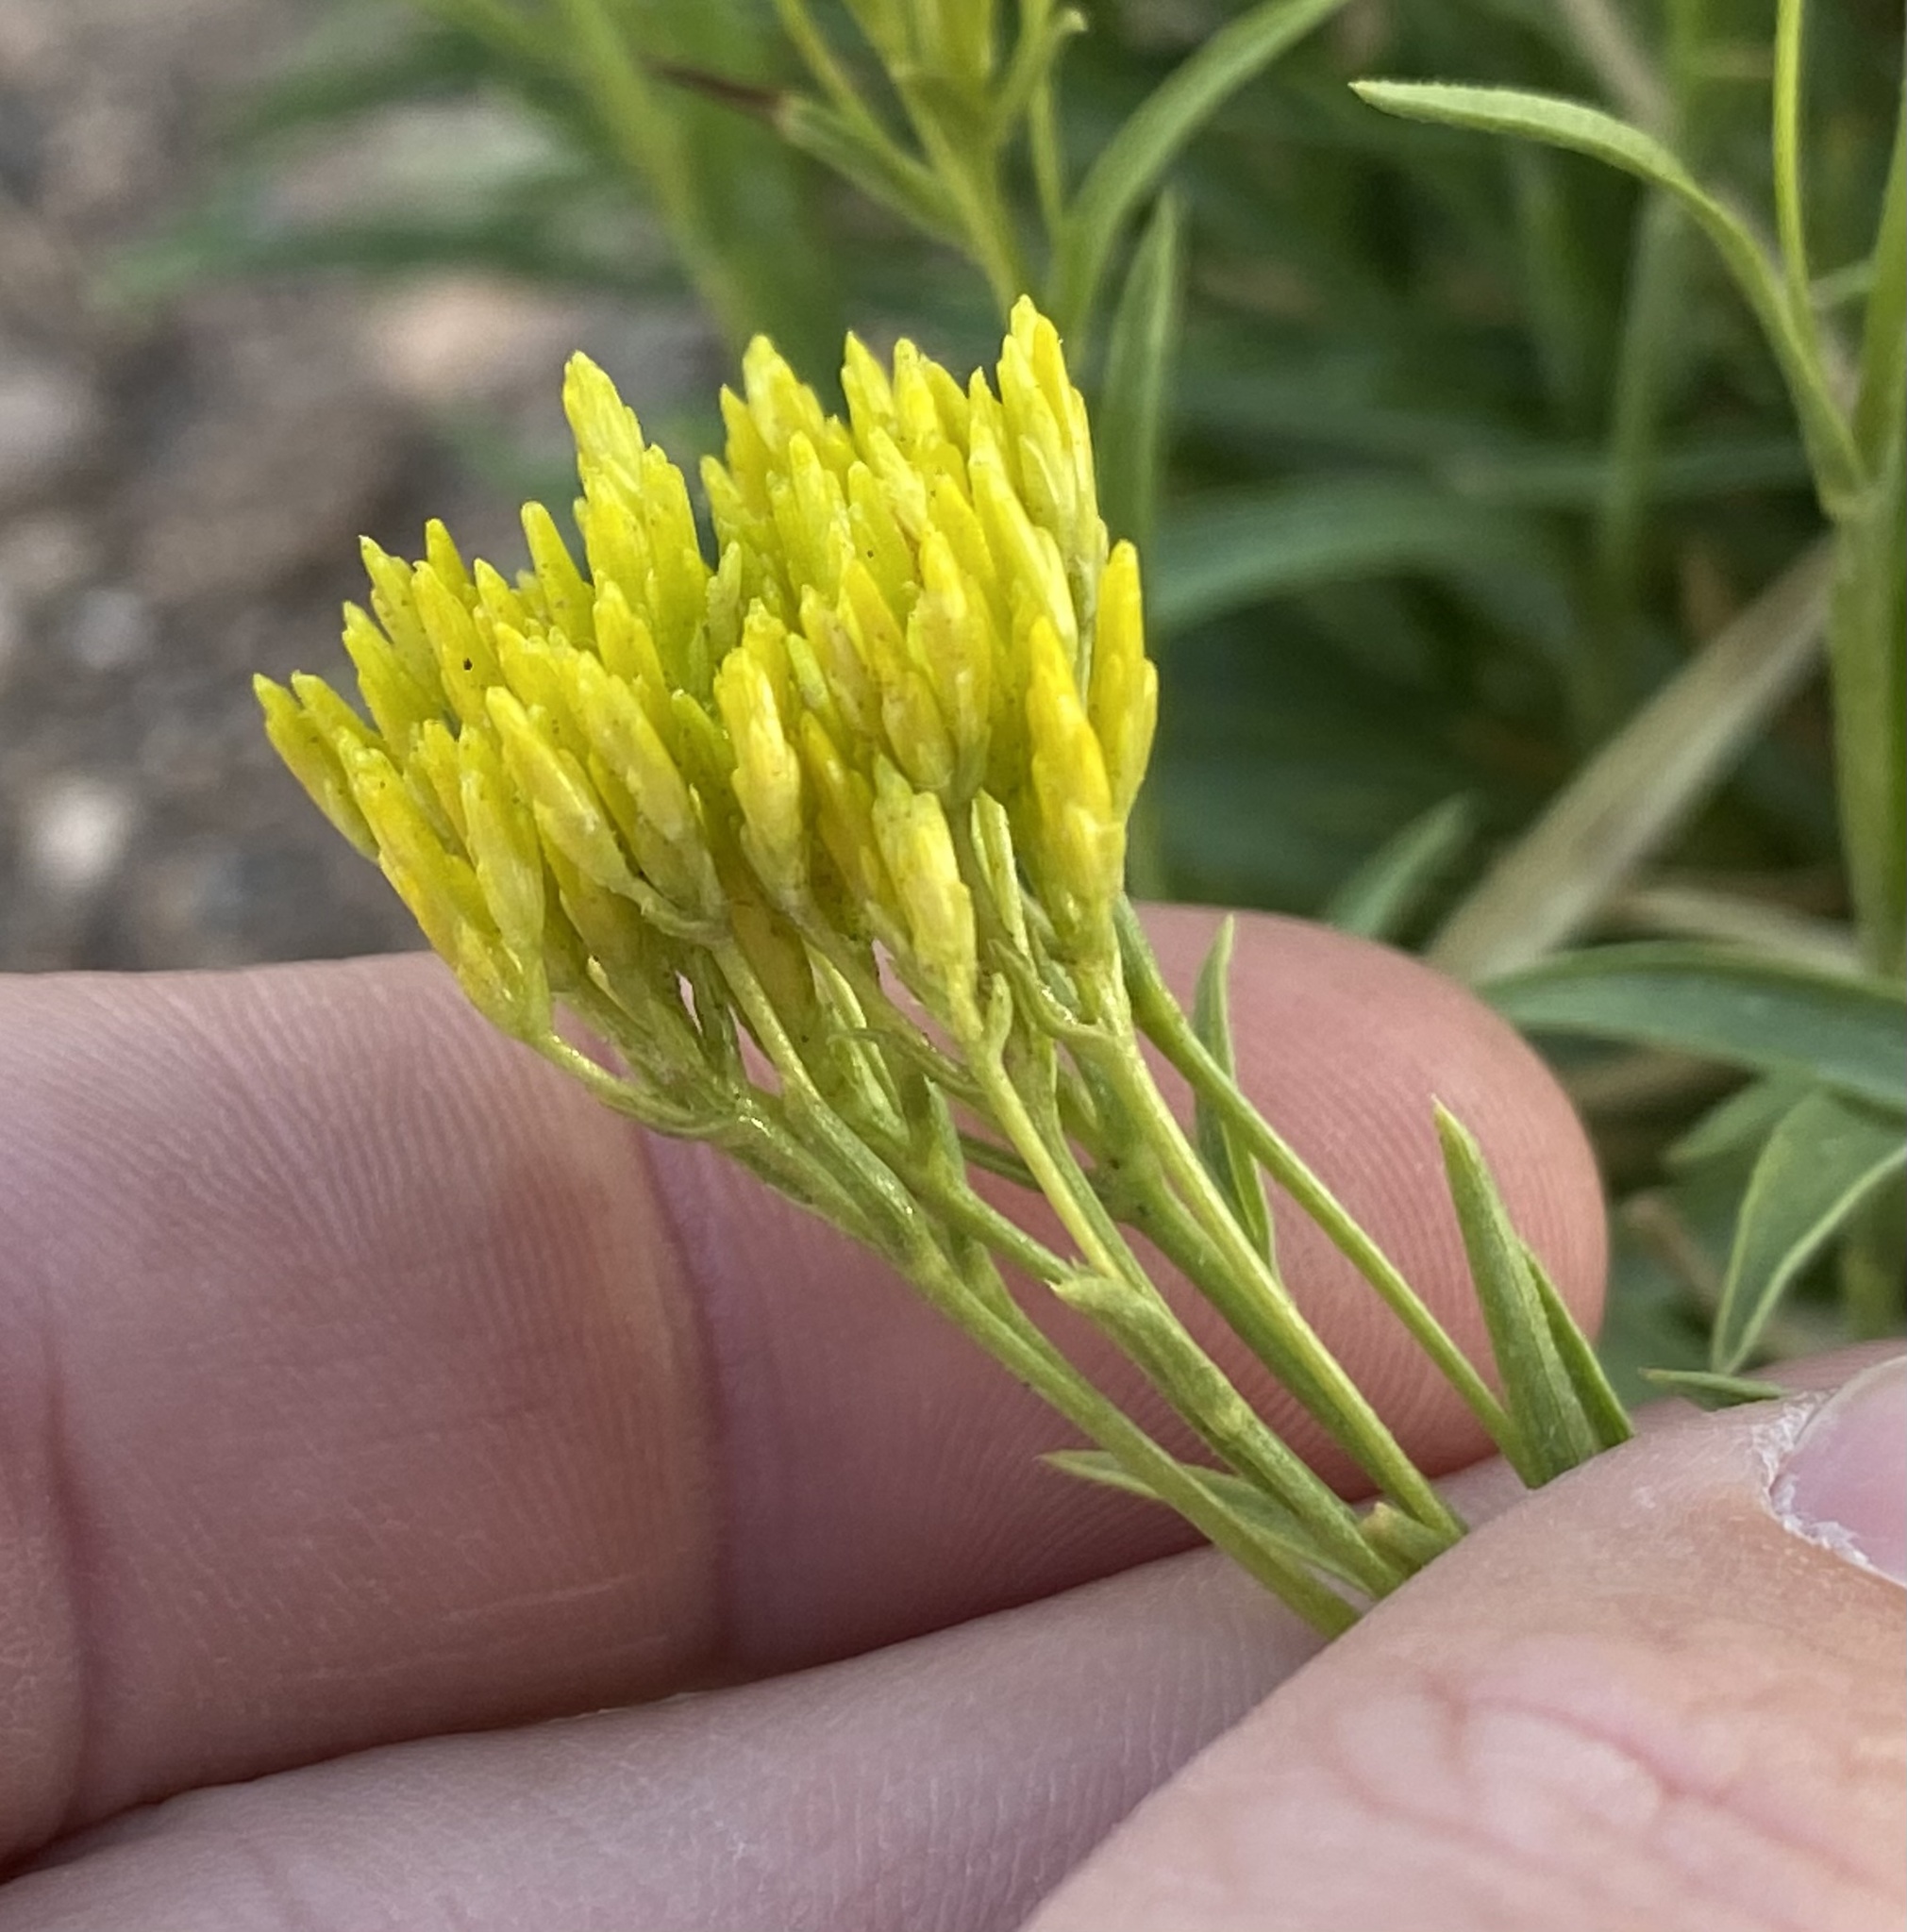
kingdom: Plantae
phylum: Tracheophyta
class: Magnoliopsida
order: Asterales
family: Asteraceae
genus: Petradoria
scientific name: Petradoria pumila
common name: Rock-goldenrod
